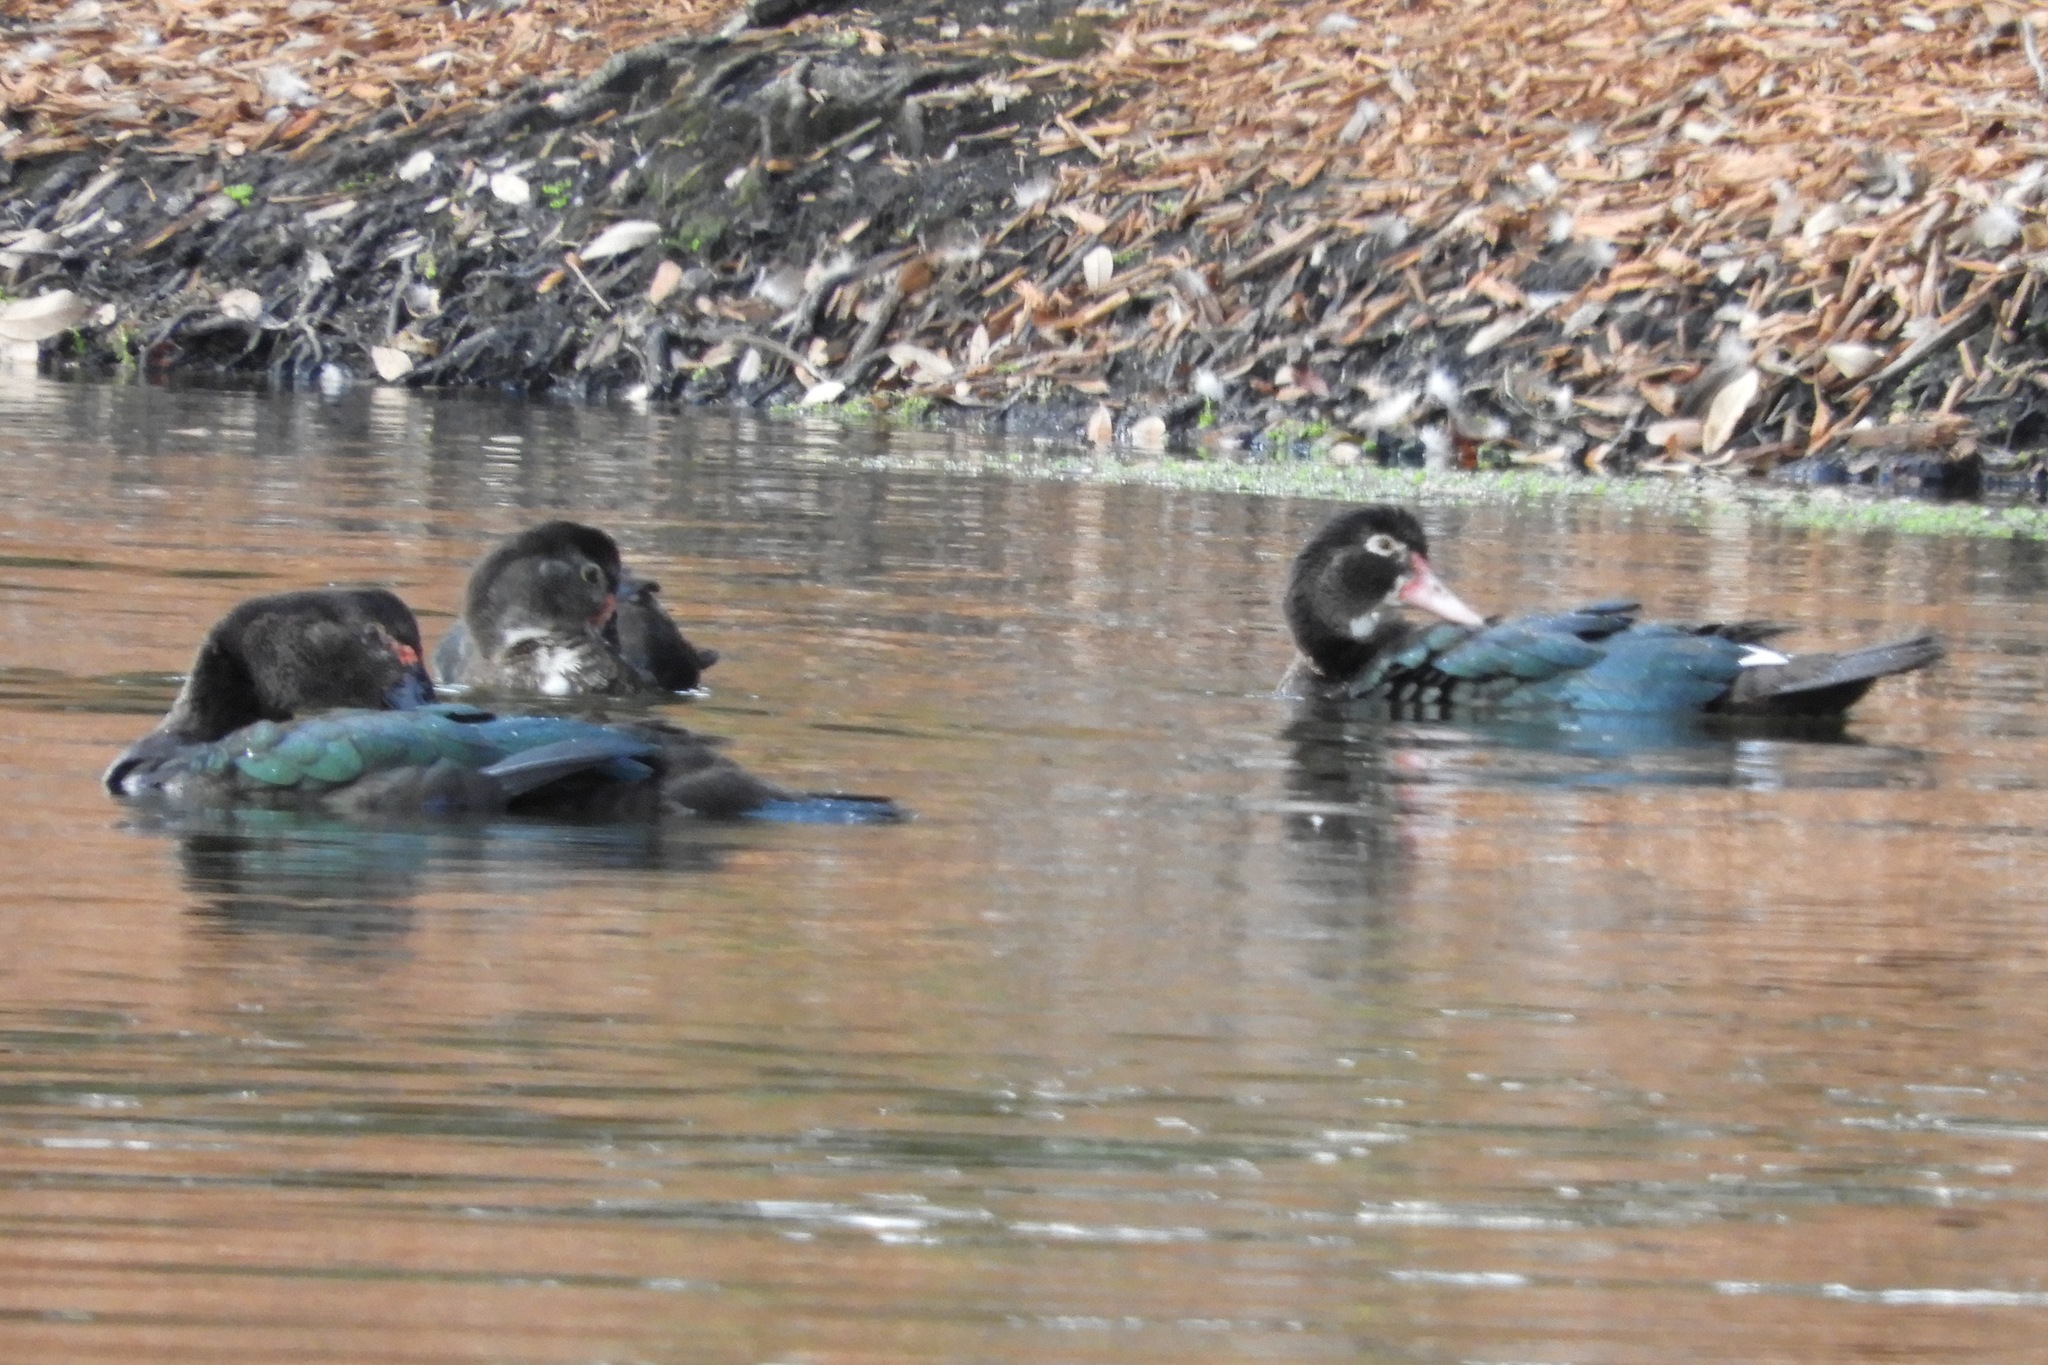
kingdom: Animalia
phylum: Chordata
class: Aves
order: Anseriformes
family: Anatidae
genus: Cairina
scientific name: Cairina moschata
